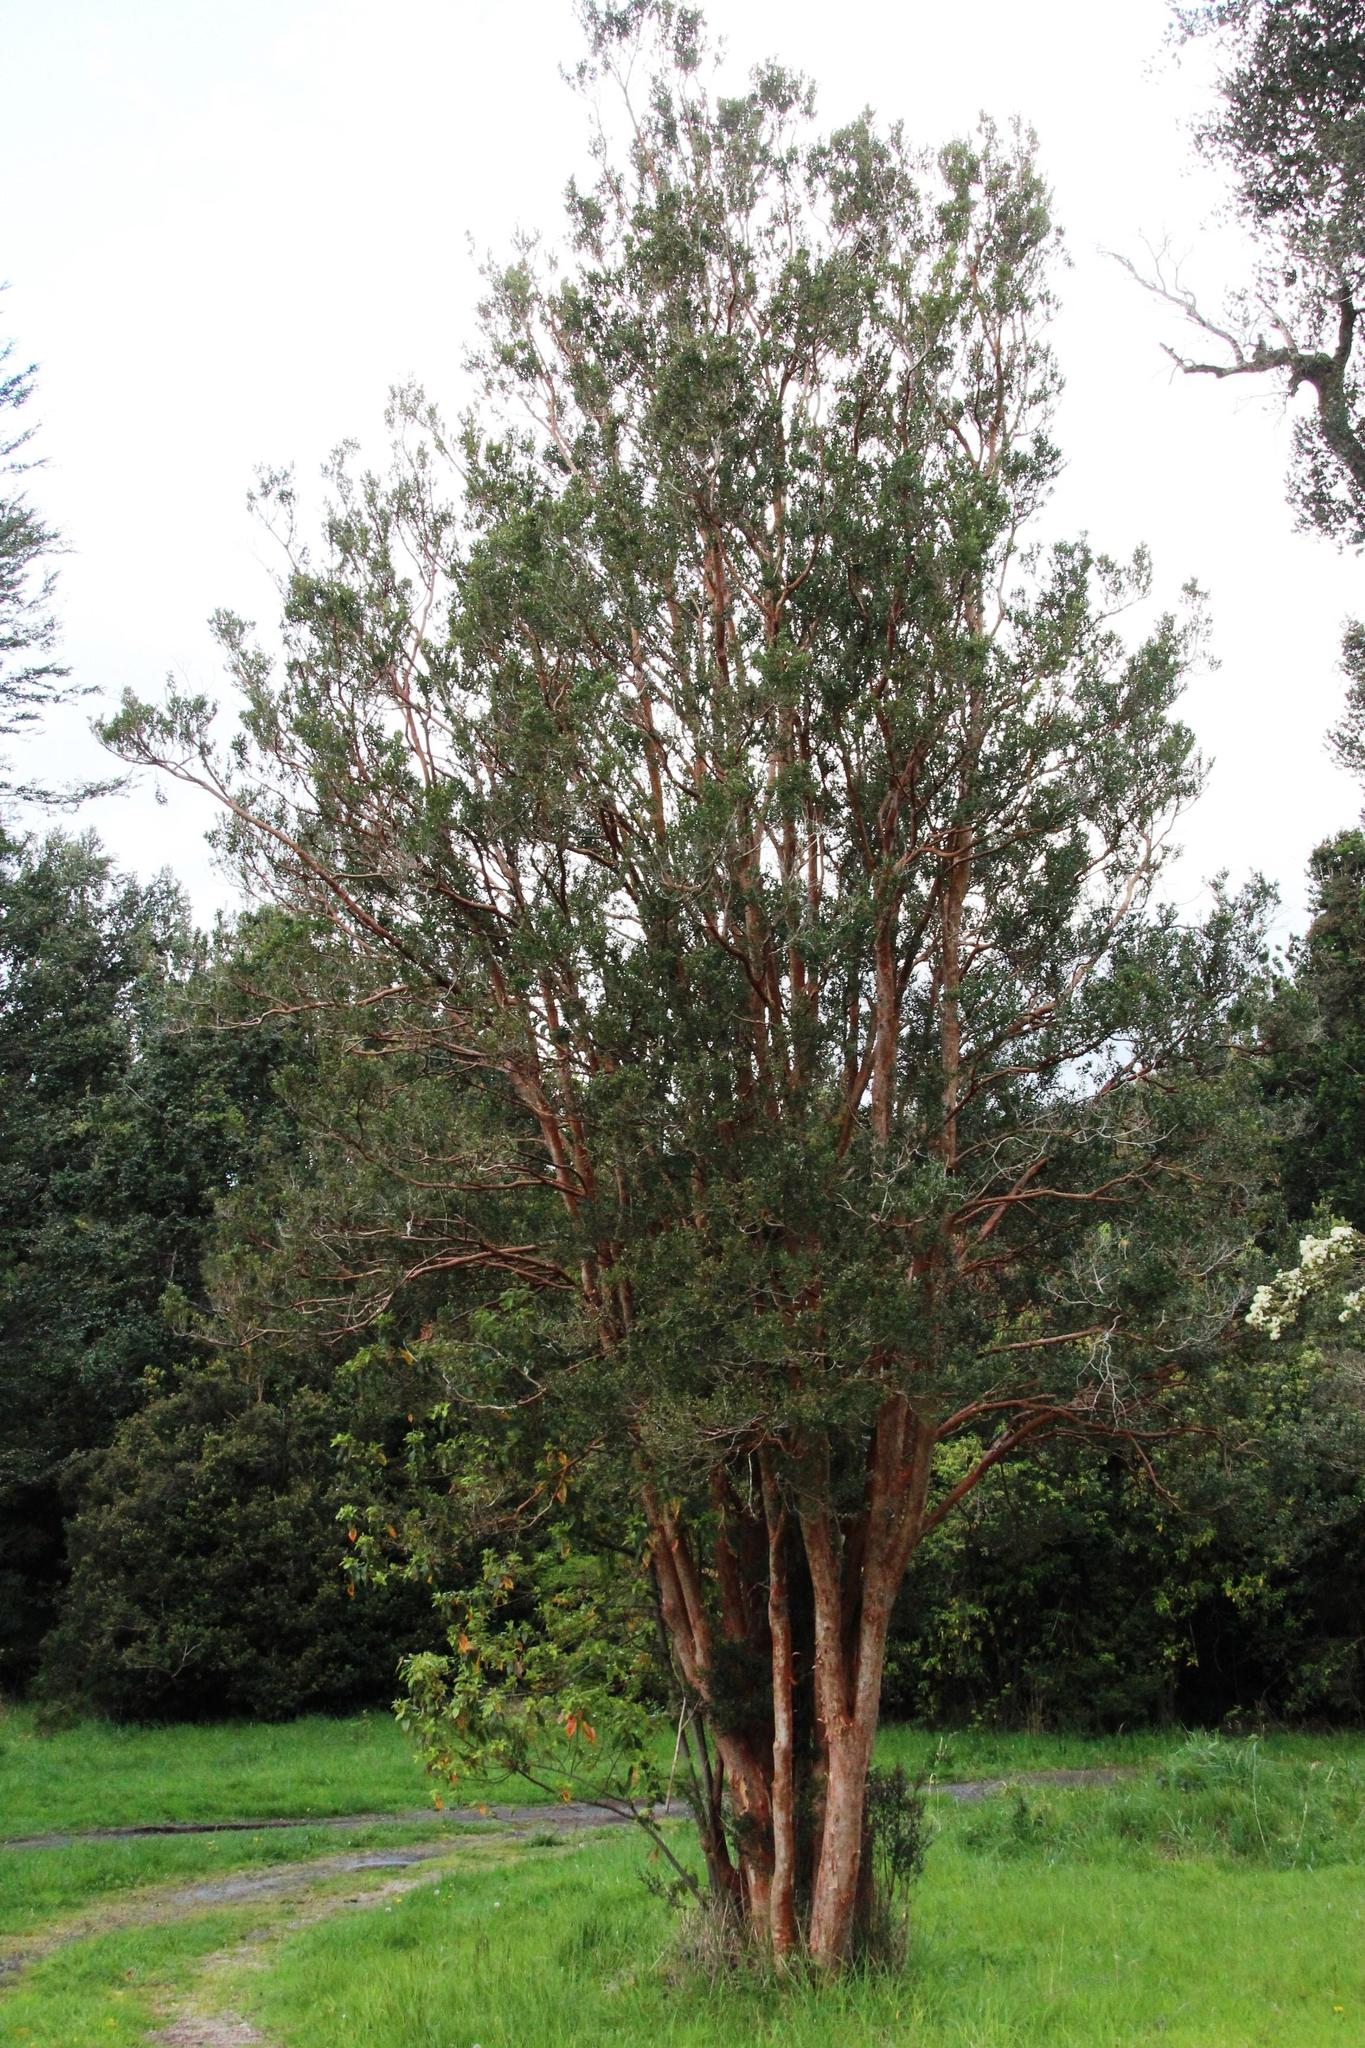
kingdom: Plantae
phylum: Tracheophyta
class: Magnoliopsida
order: Myrtales
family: Myrtaceae
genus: Luma
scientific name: Luma apiculata
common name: Chilean myrtle
